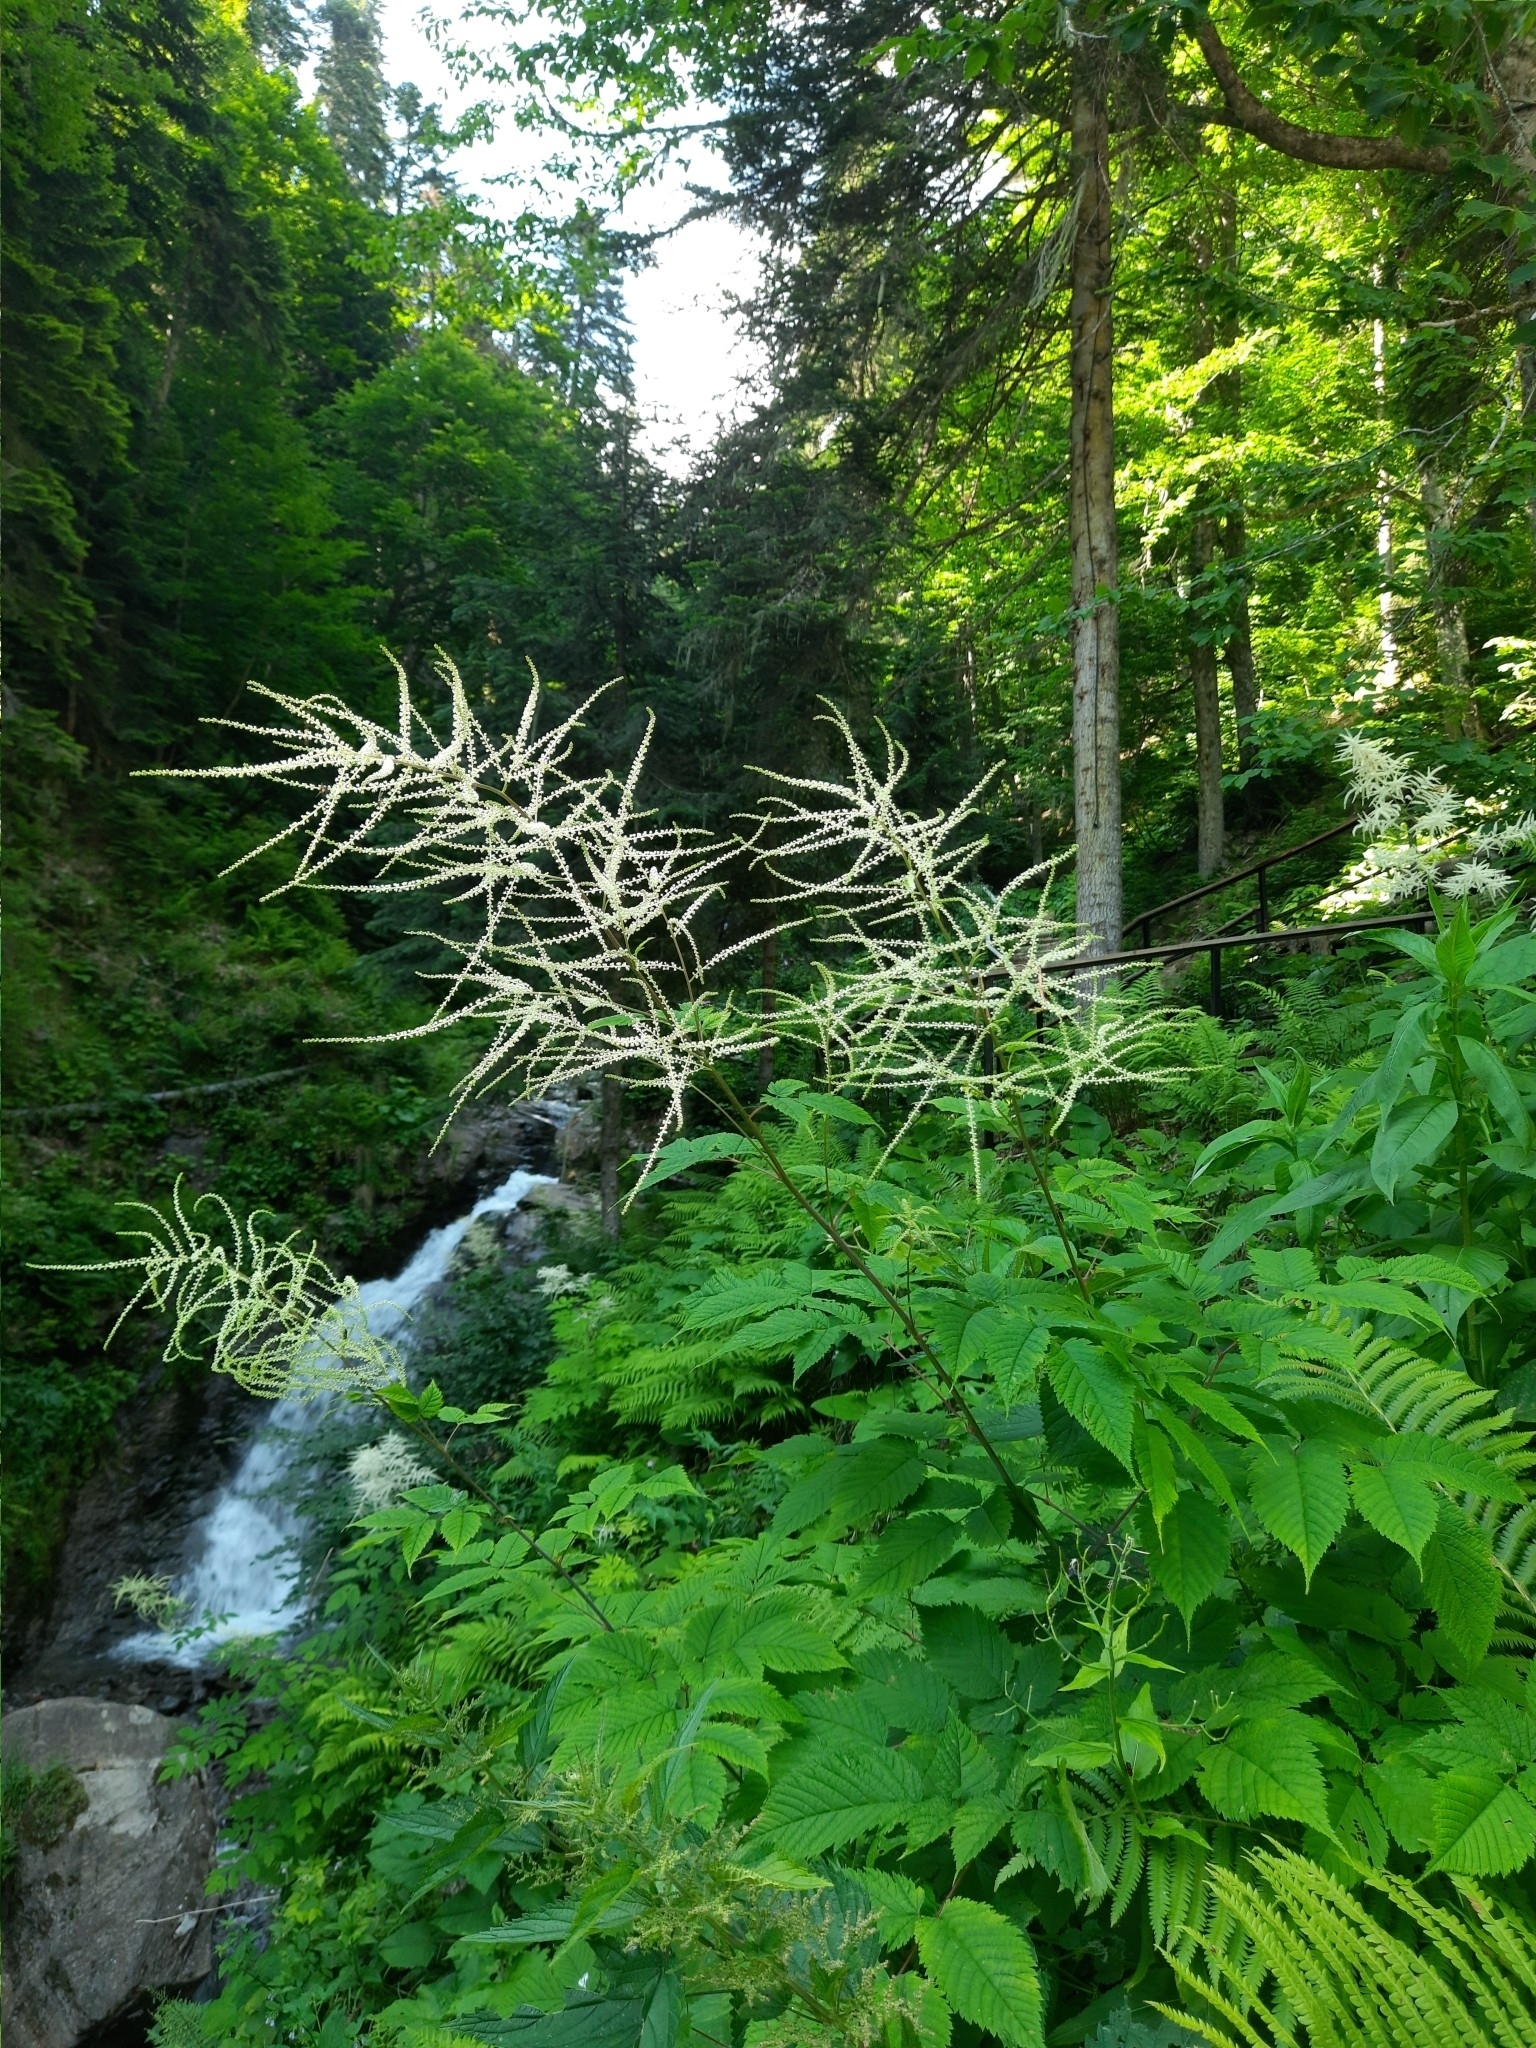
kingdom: Plantae
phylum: Tracheophyta
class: Magnoliopsida
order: Rosales
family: Rosaceae
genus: Aruncus
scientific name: Aruncus dioicus
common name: Buck's-beard
